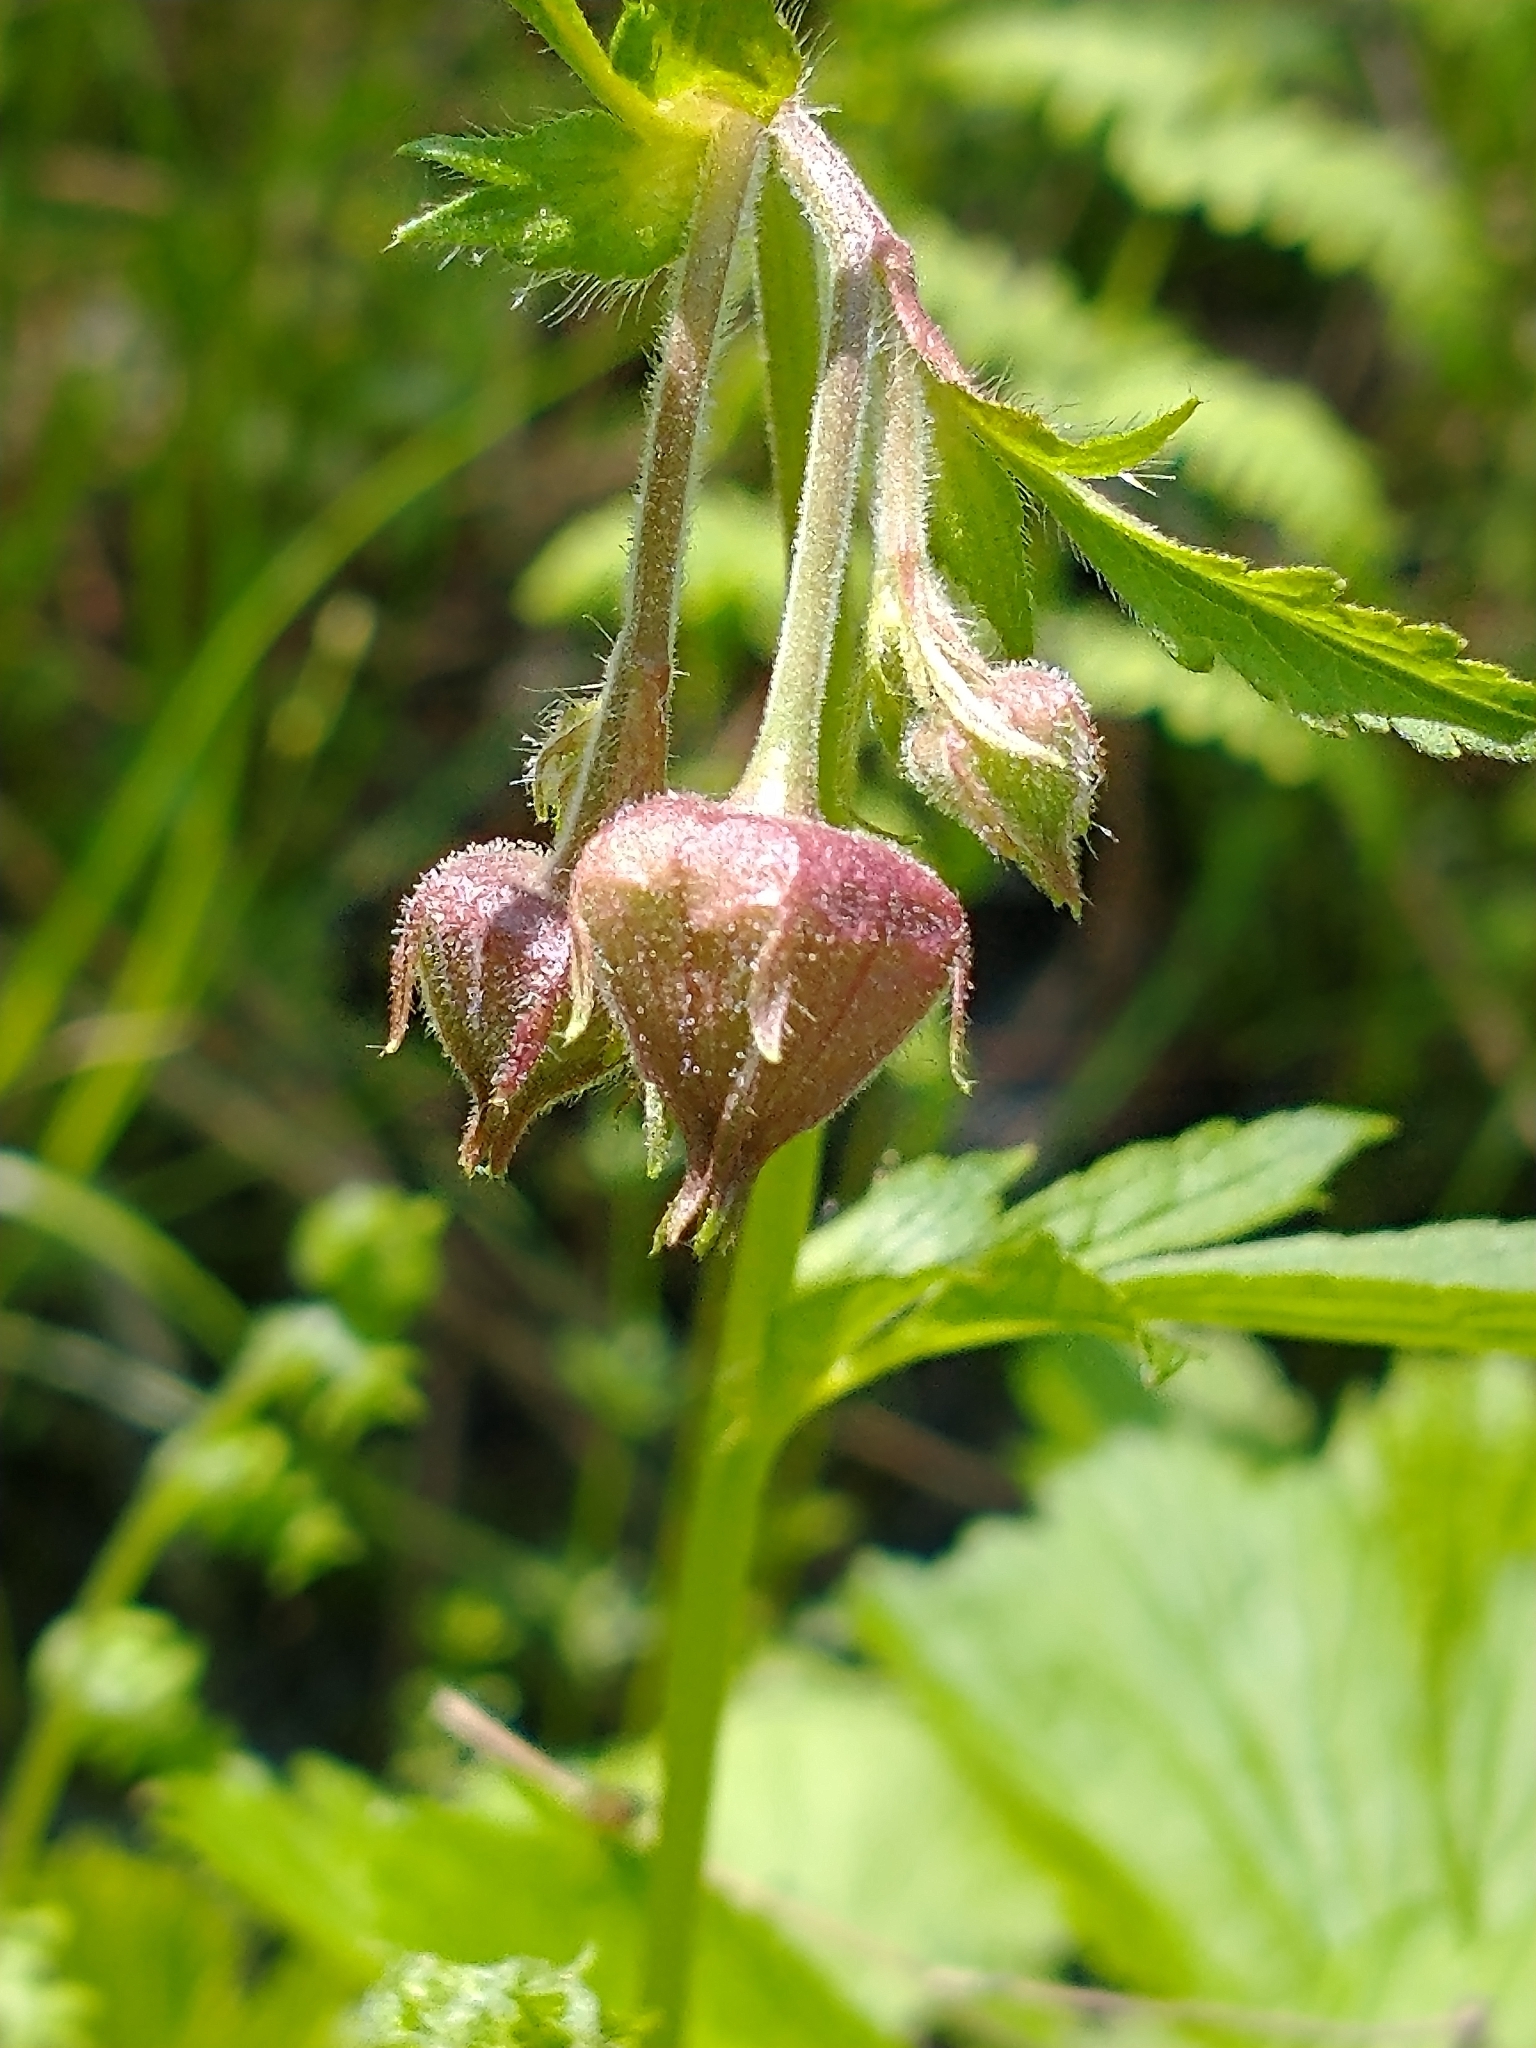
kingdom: Plantae
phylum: Tracheophyta
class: Magnoliopsida
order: Rosales
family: Rosaceae
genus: Geum
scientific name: Geum rivale
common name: Water avens
